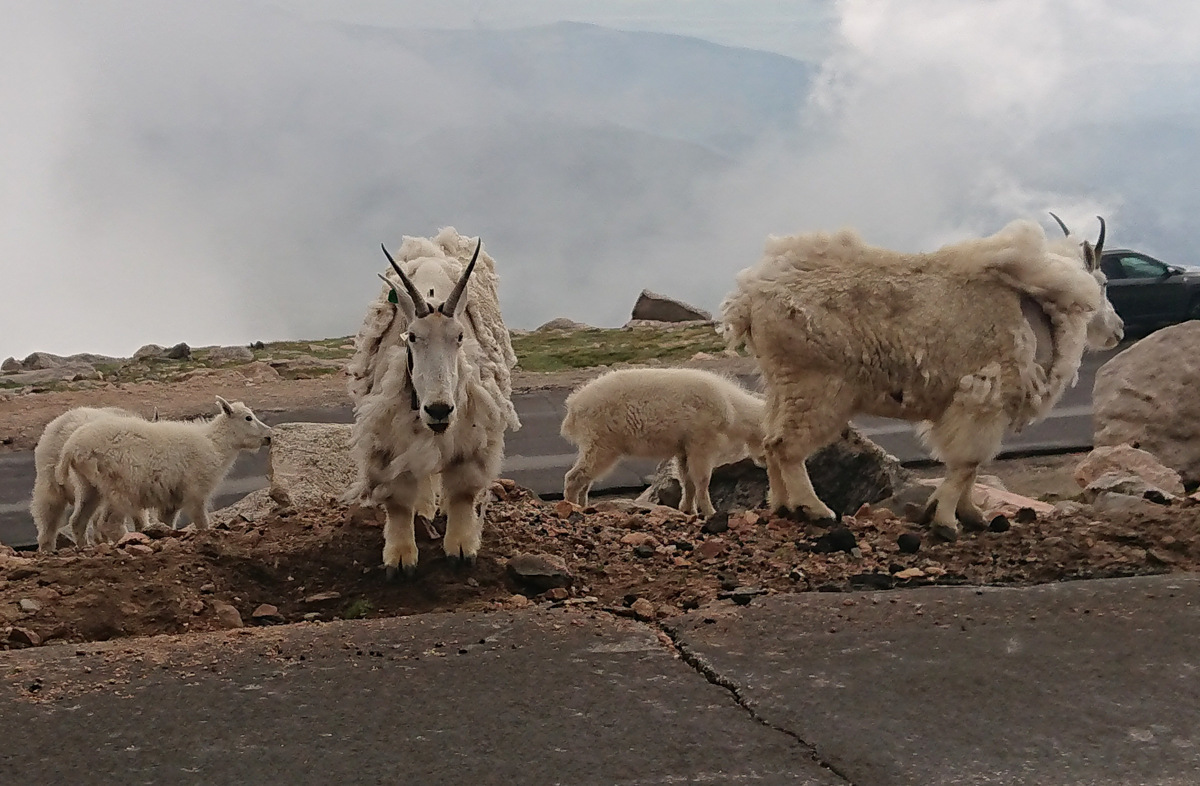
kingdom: Animalia
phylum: Chordata
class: Mammalia
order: Artiodactyla
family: Bovidae
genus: Oreamnos
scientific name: Oreamnos americanus
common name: Mountain goat
